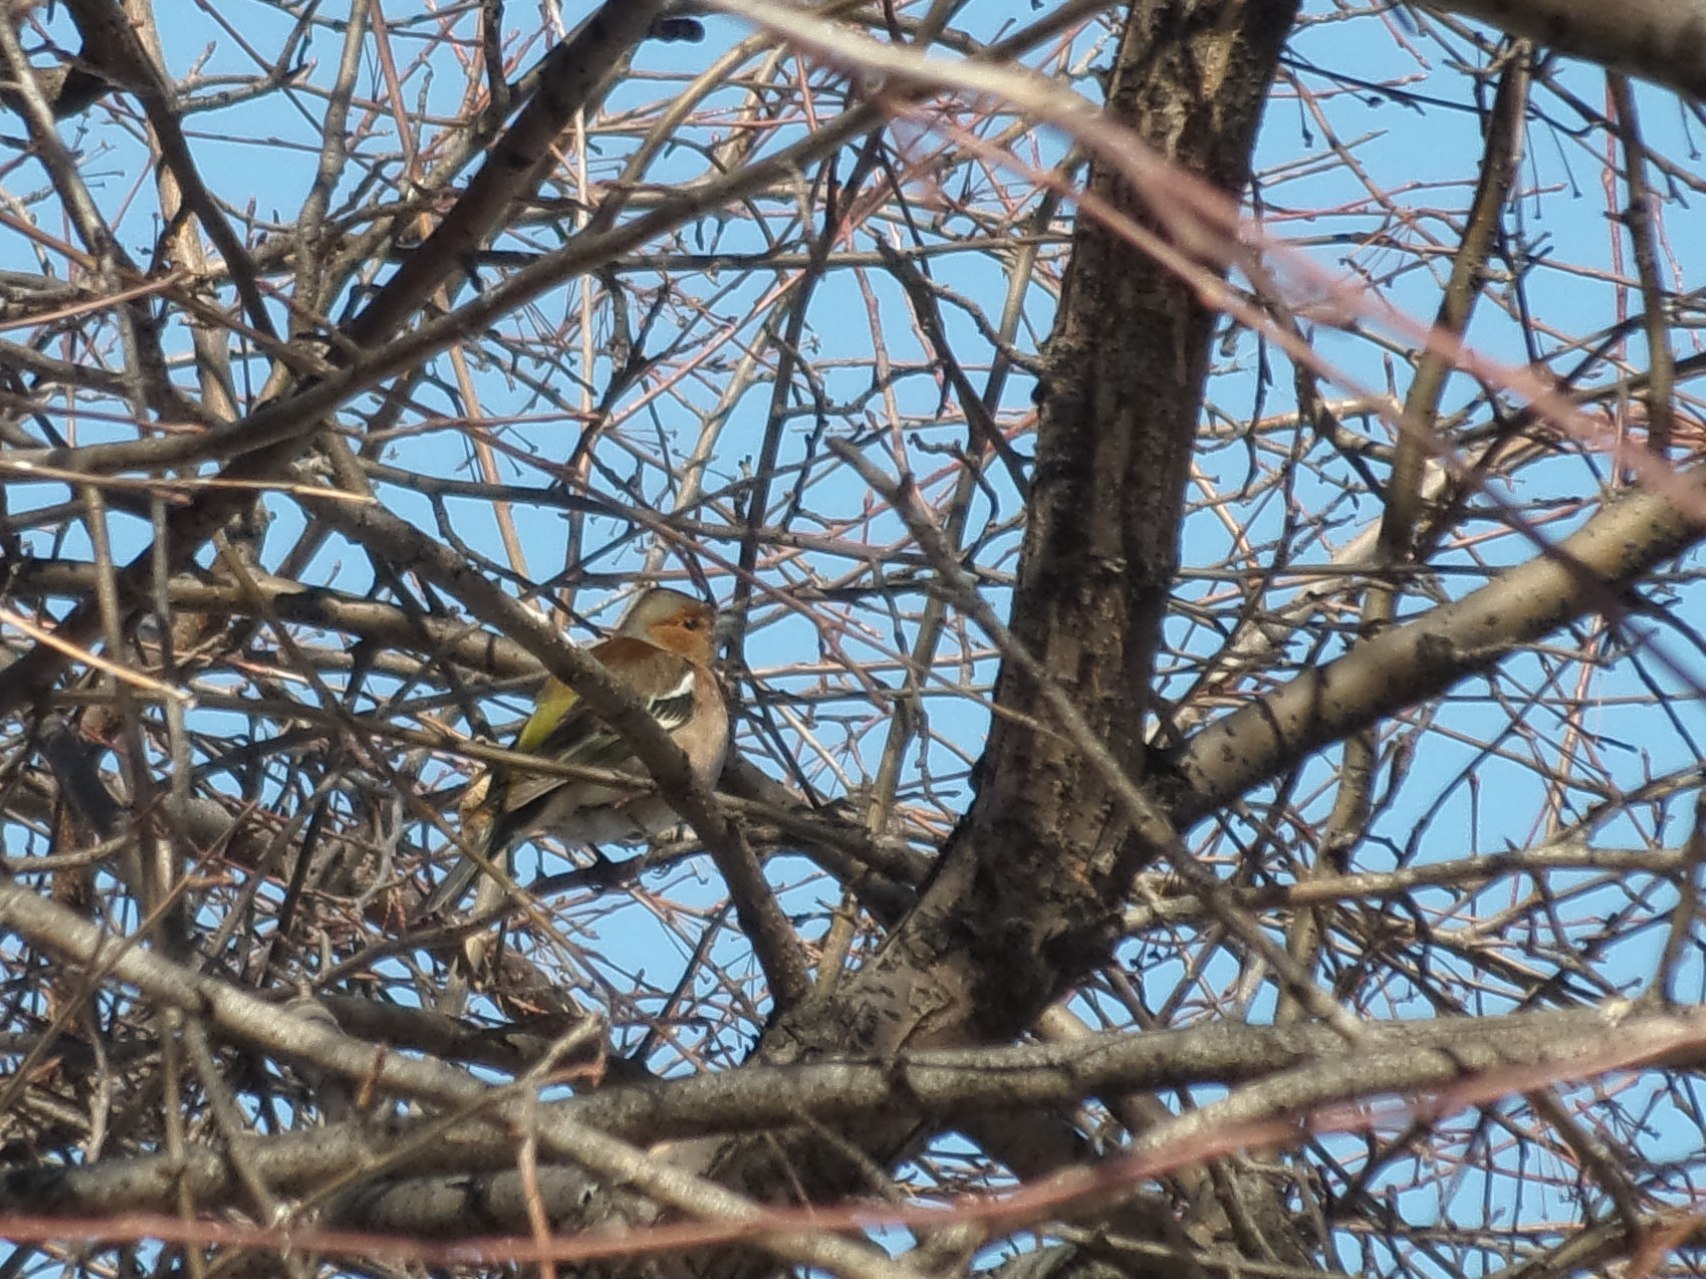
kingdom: Animalia
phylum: Chordata
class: Aves
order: Passeriformes
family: Fringillidae
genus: Fringilla
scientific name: Fringilla coelebs
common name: Common chaffinch
